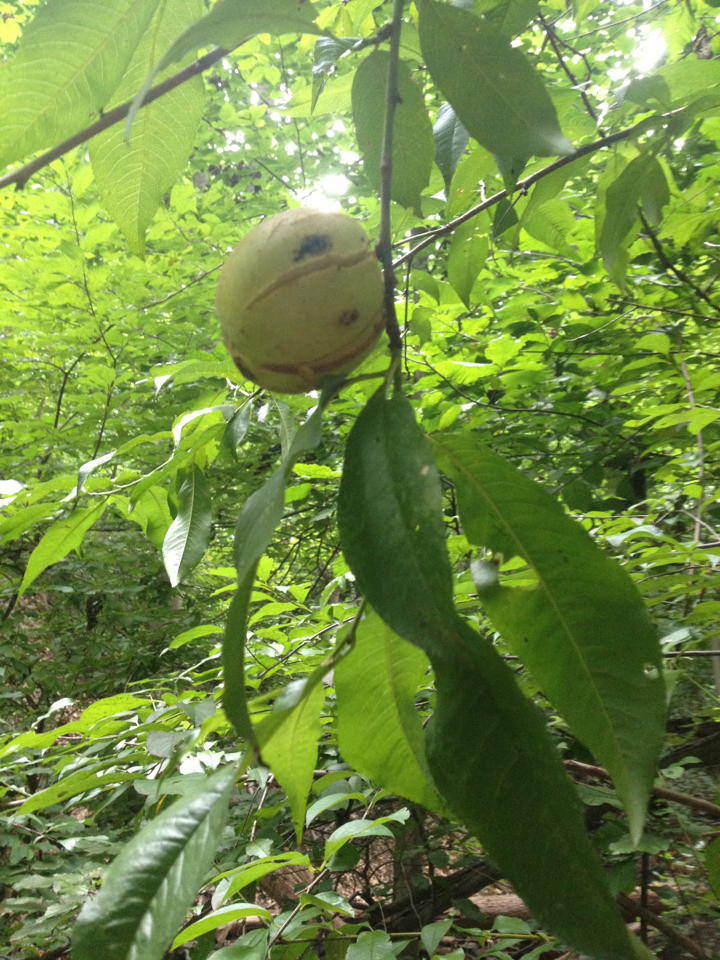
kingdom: Plantae
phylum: Tracheophyta
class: Magnoliopsida
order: Fagales
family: Juglandaceae
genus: Juglans
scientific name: Juglans nigra
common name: Black walnut
